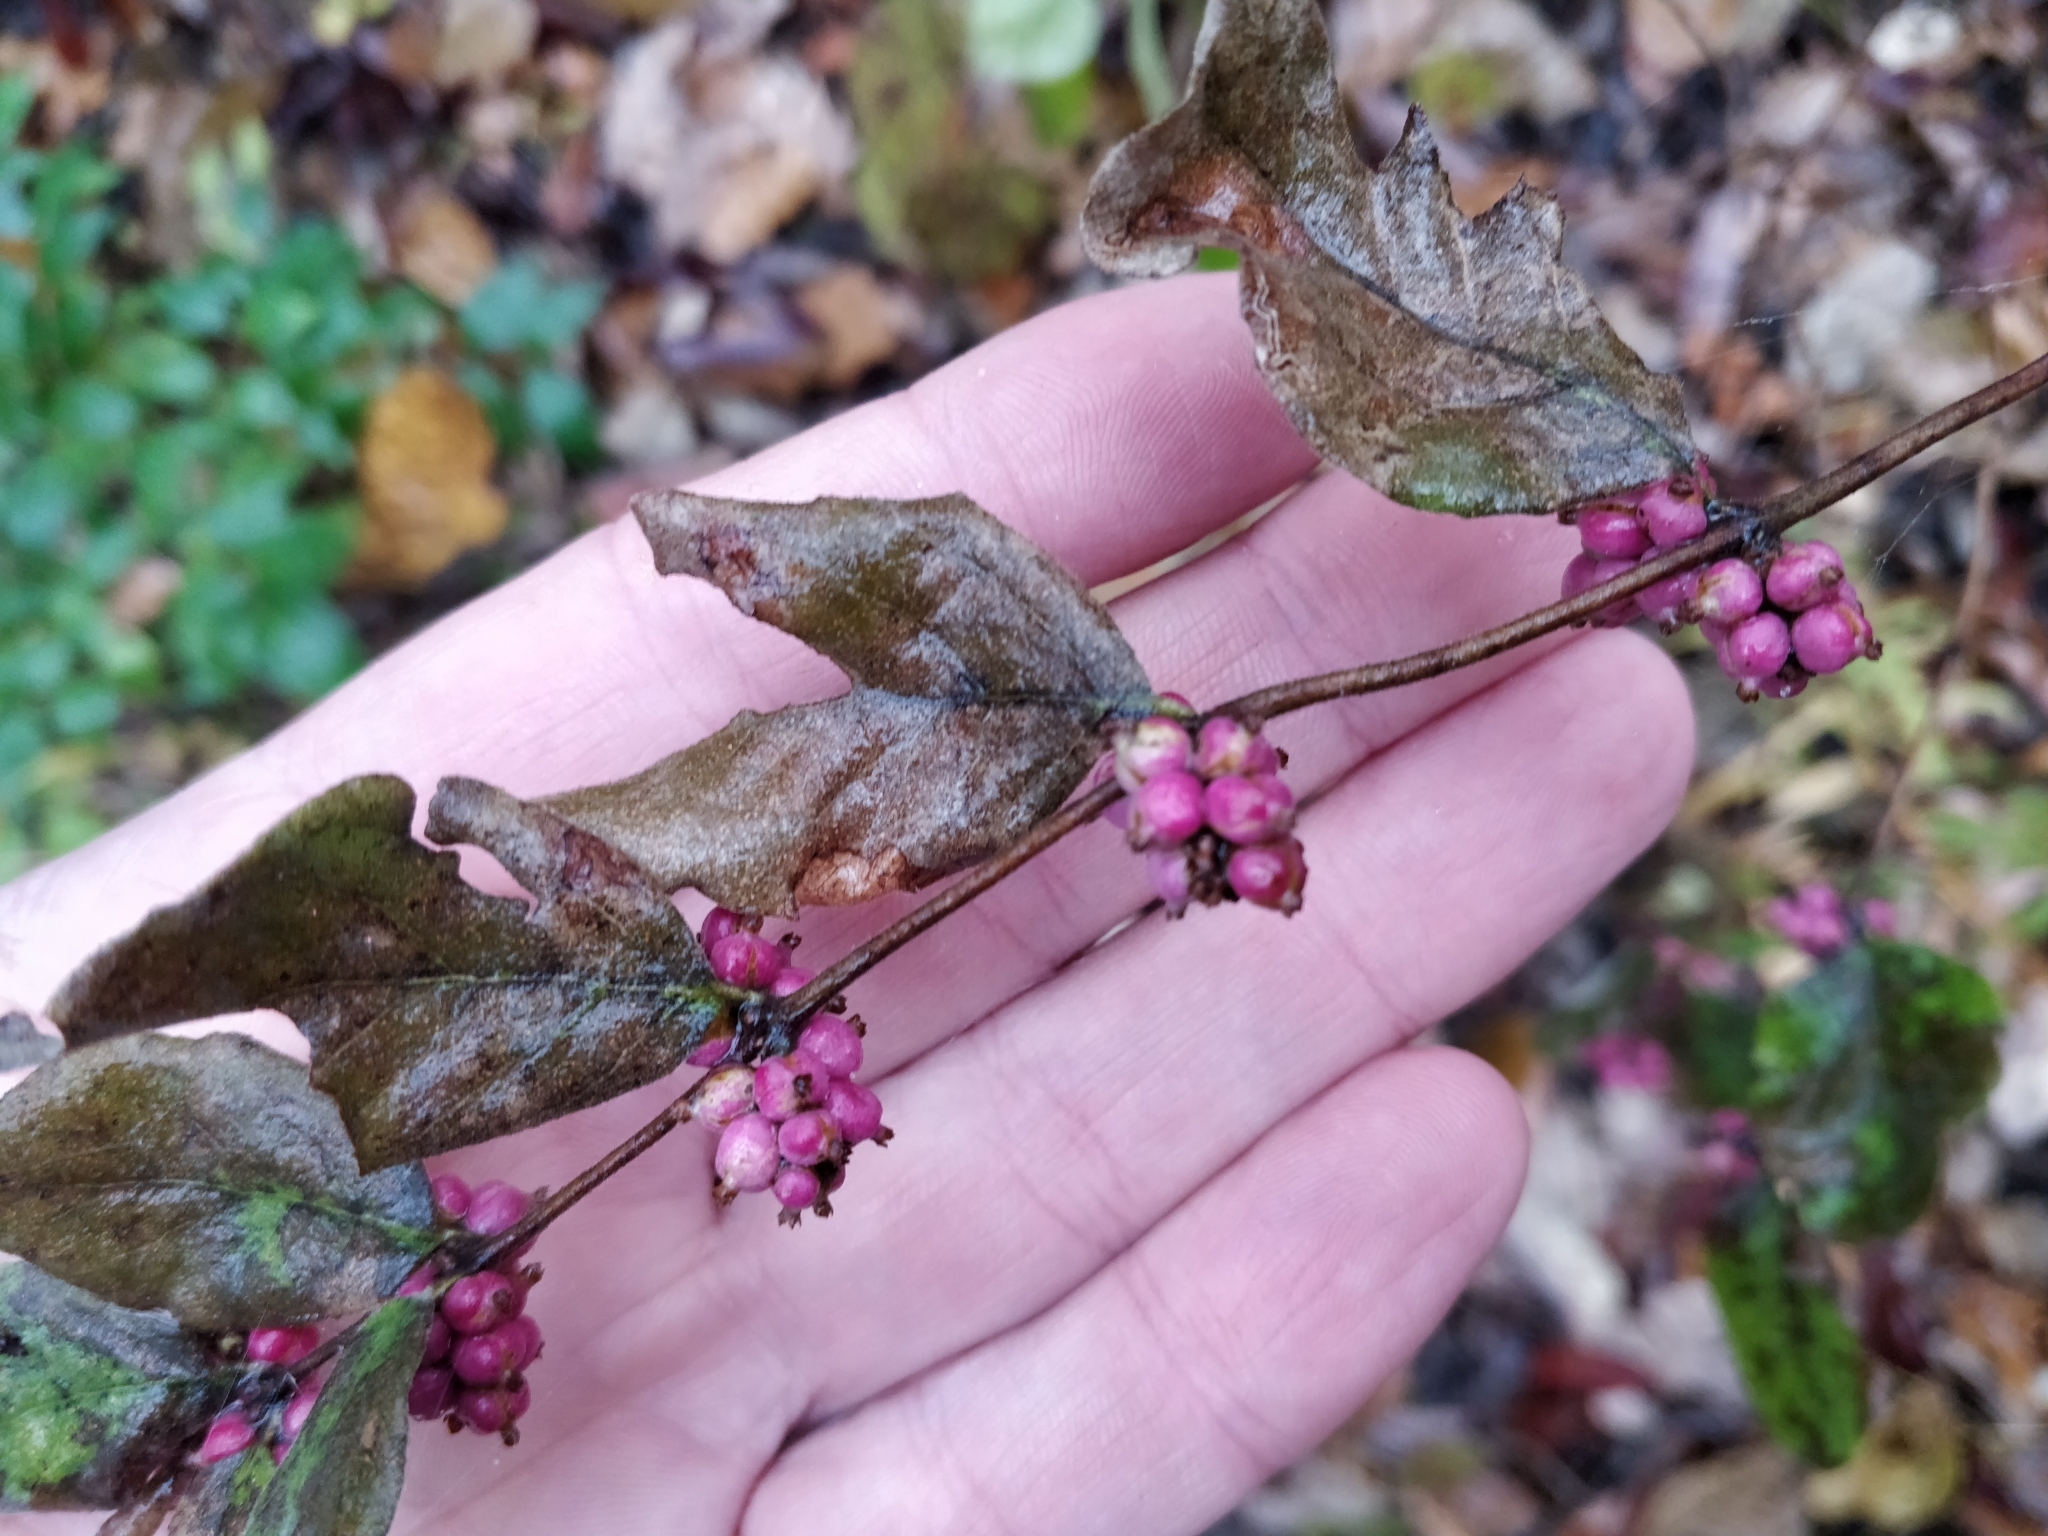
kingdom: Plantae
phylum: Tracheophyta
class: Magnoliopsida
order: Dipsacales
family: Caprifoliaceae
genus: Symphoricarpos
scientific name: Symphoricarpos orbiculatus
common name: Coralberry
